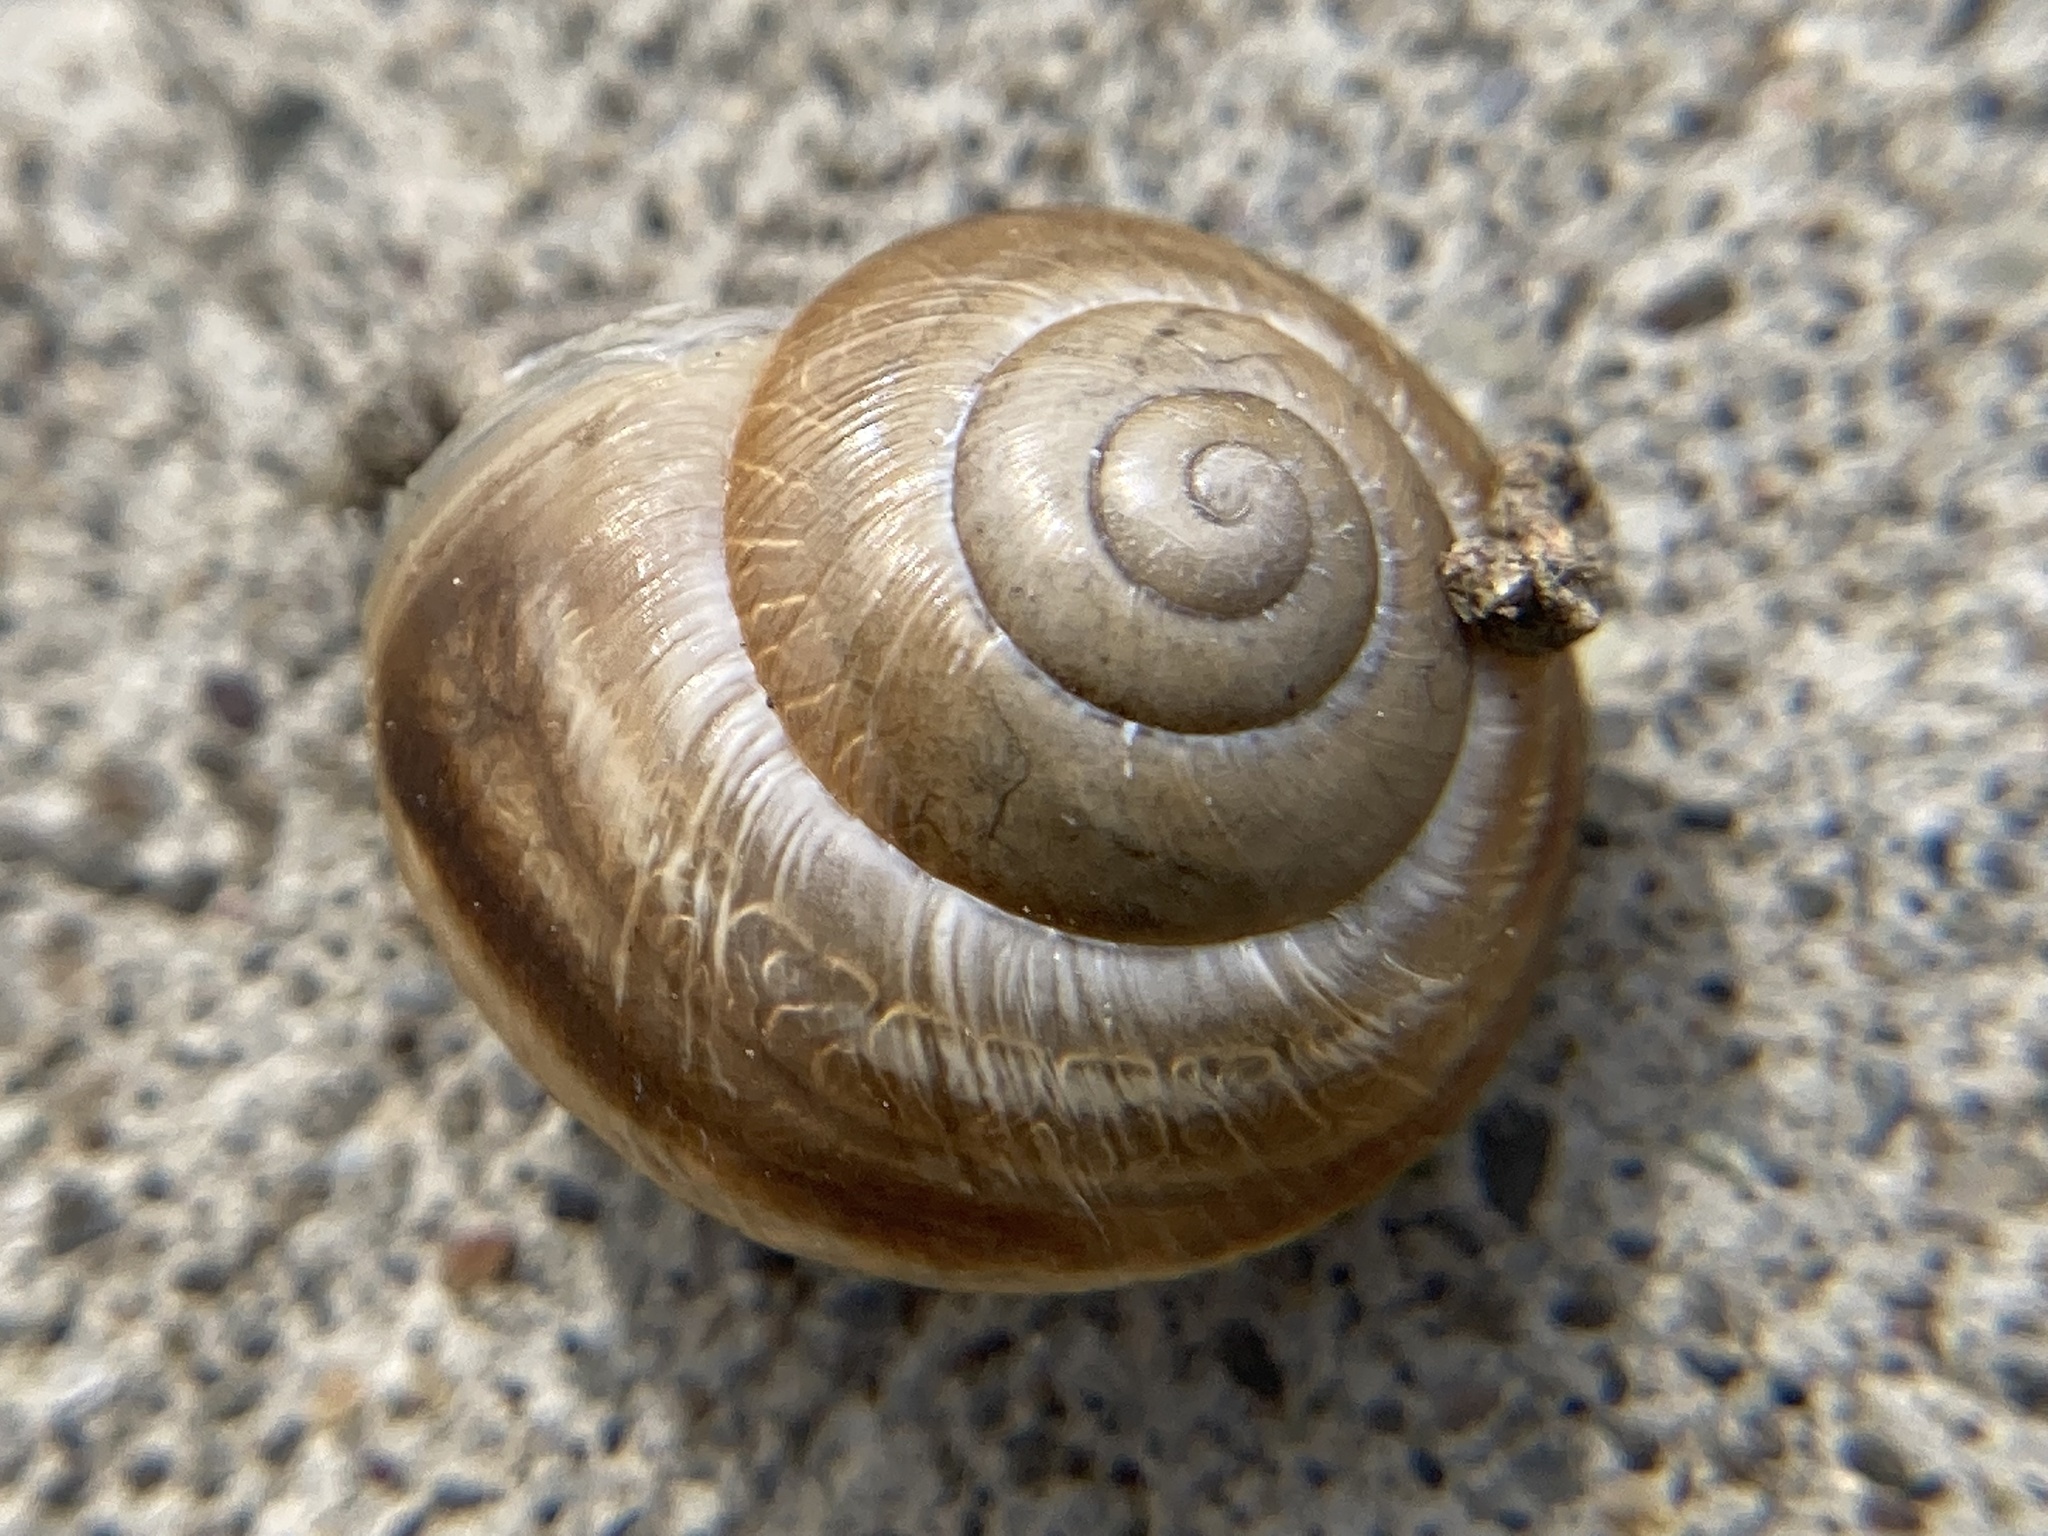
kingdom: Animalia
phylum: Mollusca
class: Gastropoda
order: Stylommatophora
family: Helicidae
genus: Caucasotachea
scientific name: Caucasotachea vindobonensis
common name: European helicid land snail
